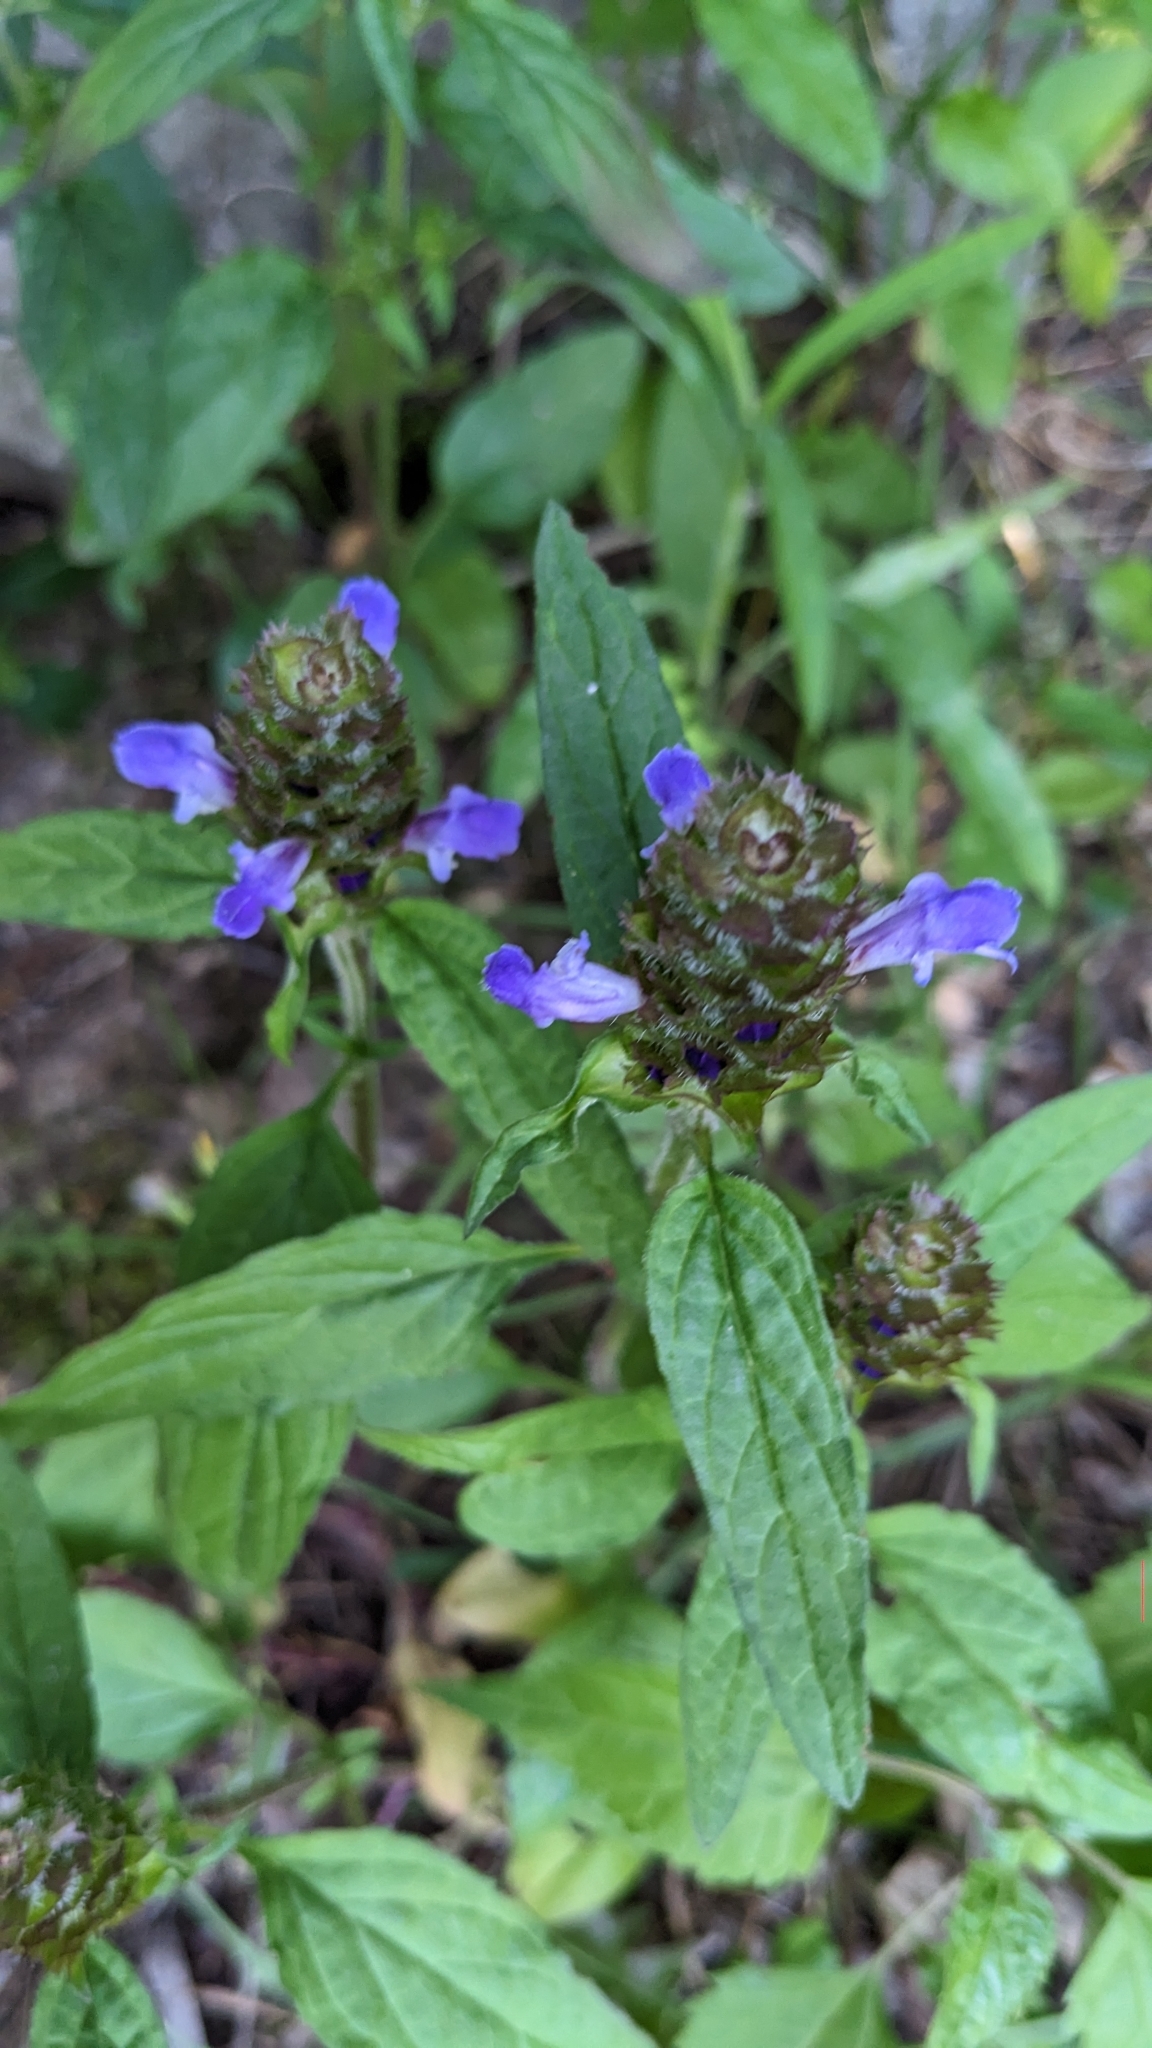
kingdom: Plantae
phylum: Tracheophyta
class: Magnoliopsida
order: Lamiales
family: Lamiaceae
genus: Prunella
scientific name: Prunella vulgaris
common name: Heal-all
